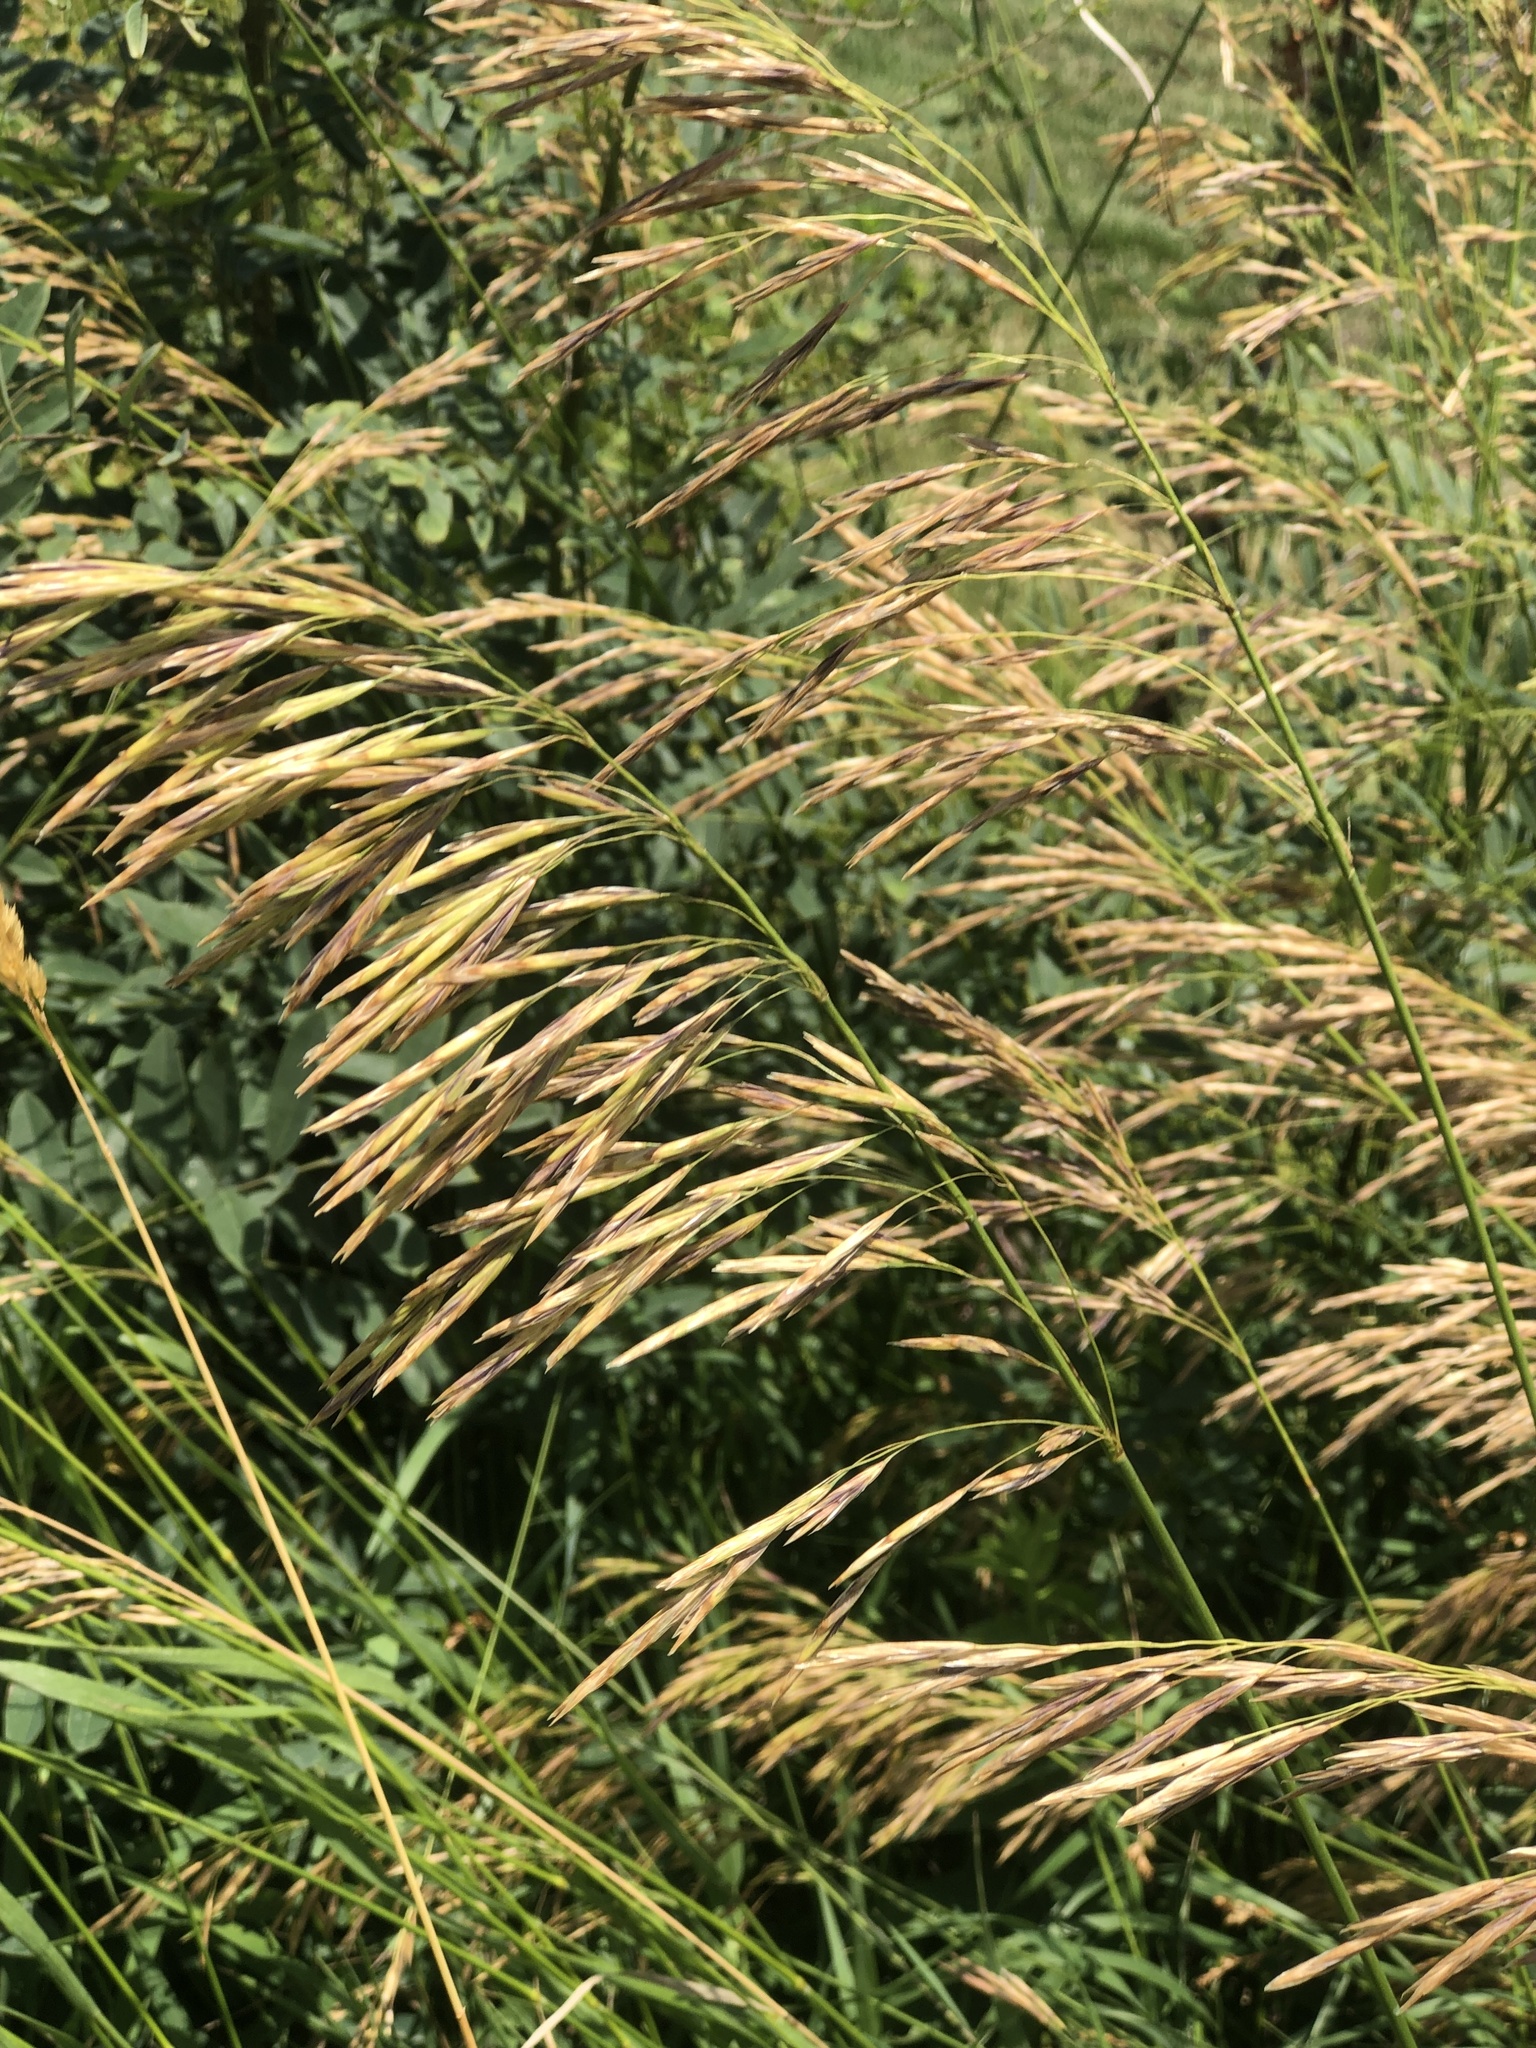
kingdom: Plantae
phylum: Tracheophyta
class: Liliopsida
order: Poales
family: Poaceae
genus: Bromus
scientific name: Bromus inermis
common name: Smooth brome
